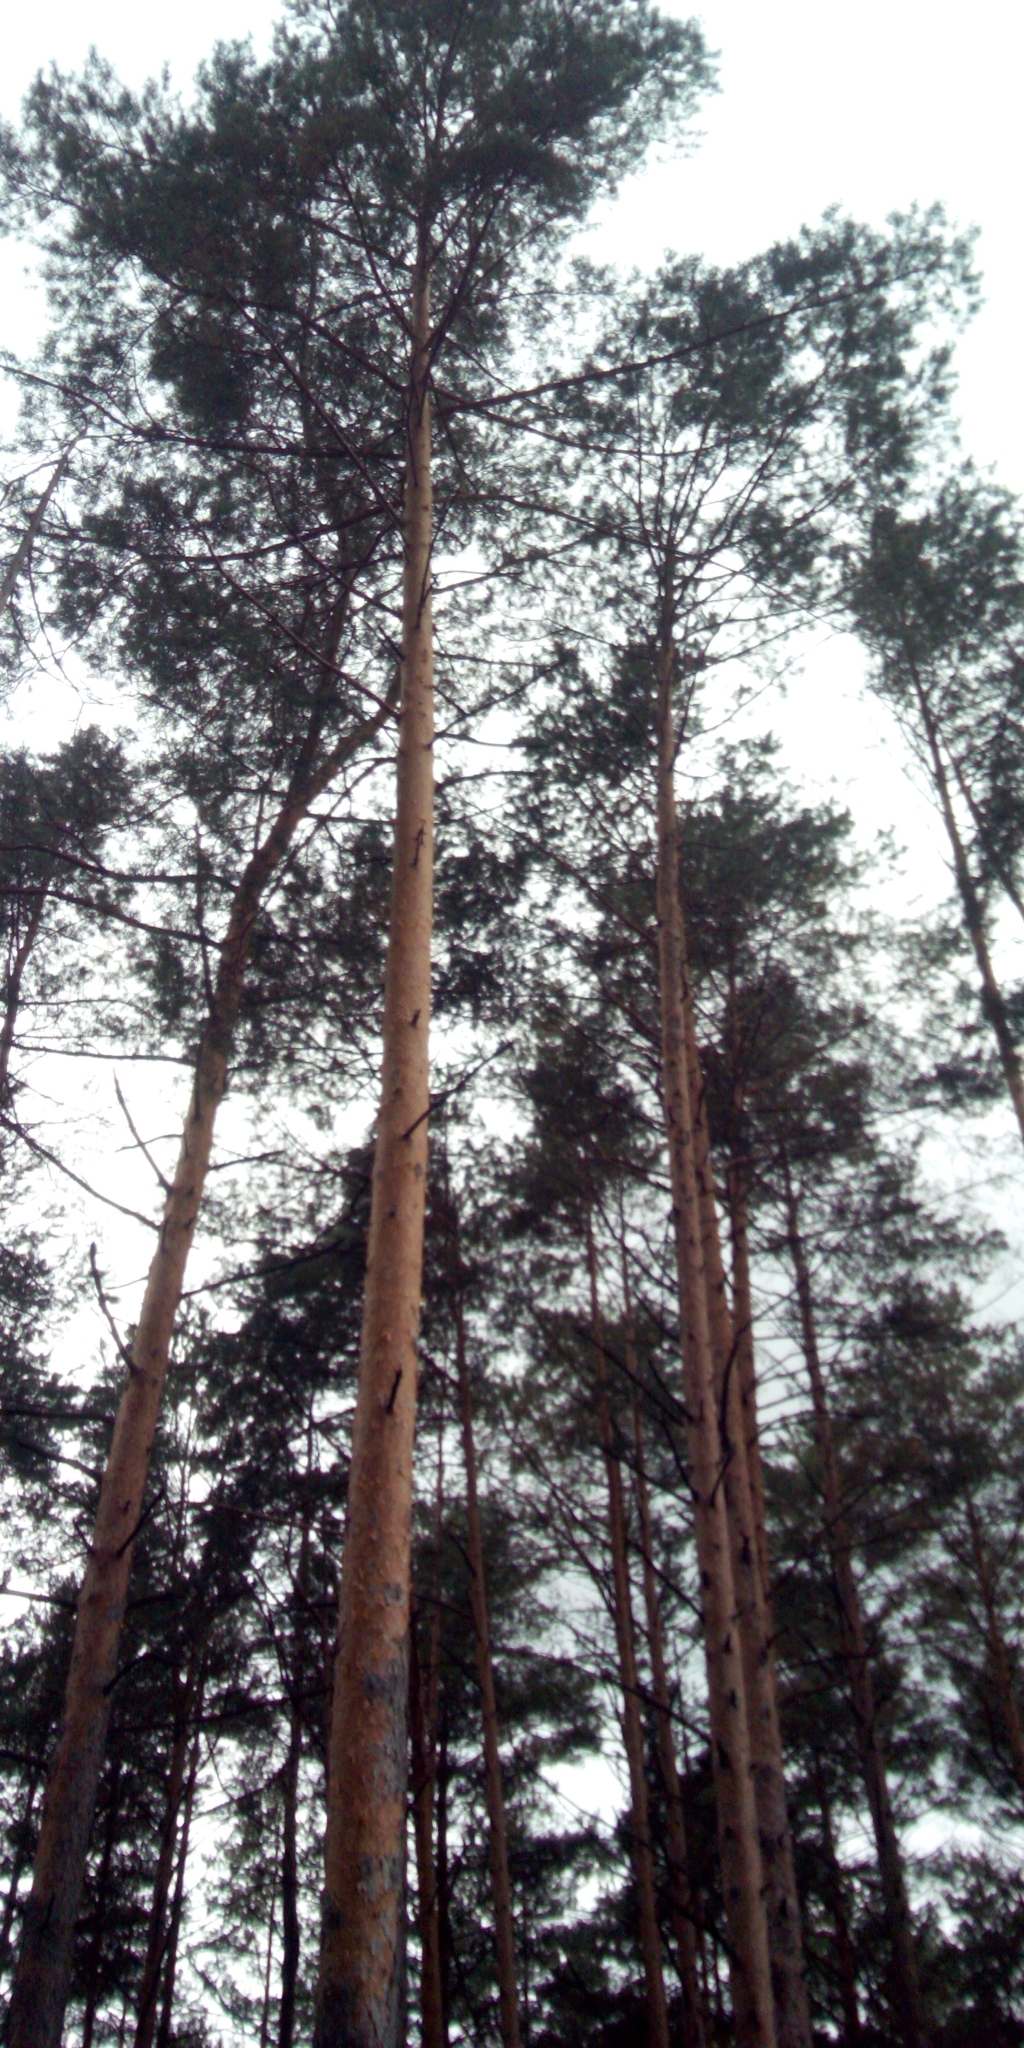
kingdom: Plantae
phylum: Tracheophyta
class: Pinopsida
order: Pinales
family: Pinaceae
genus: Pinus
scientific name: Pinus sylvestris
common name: Scots pine
